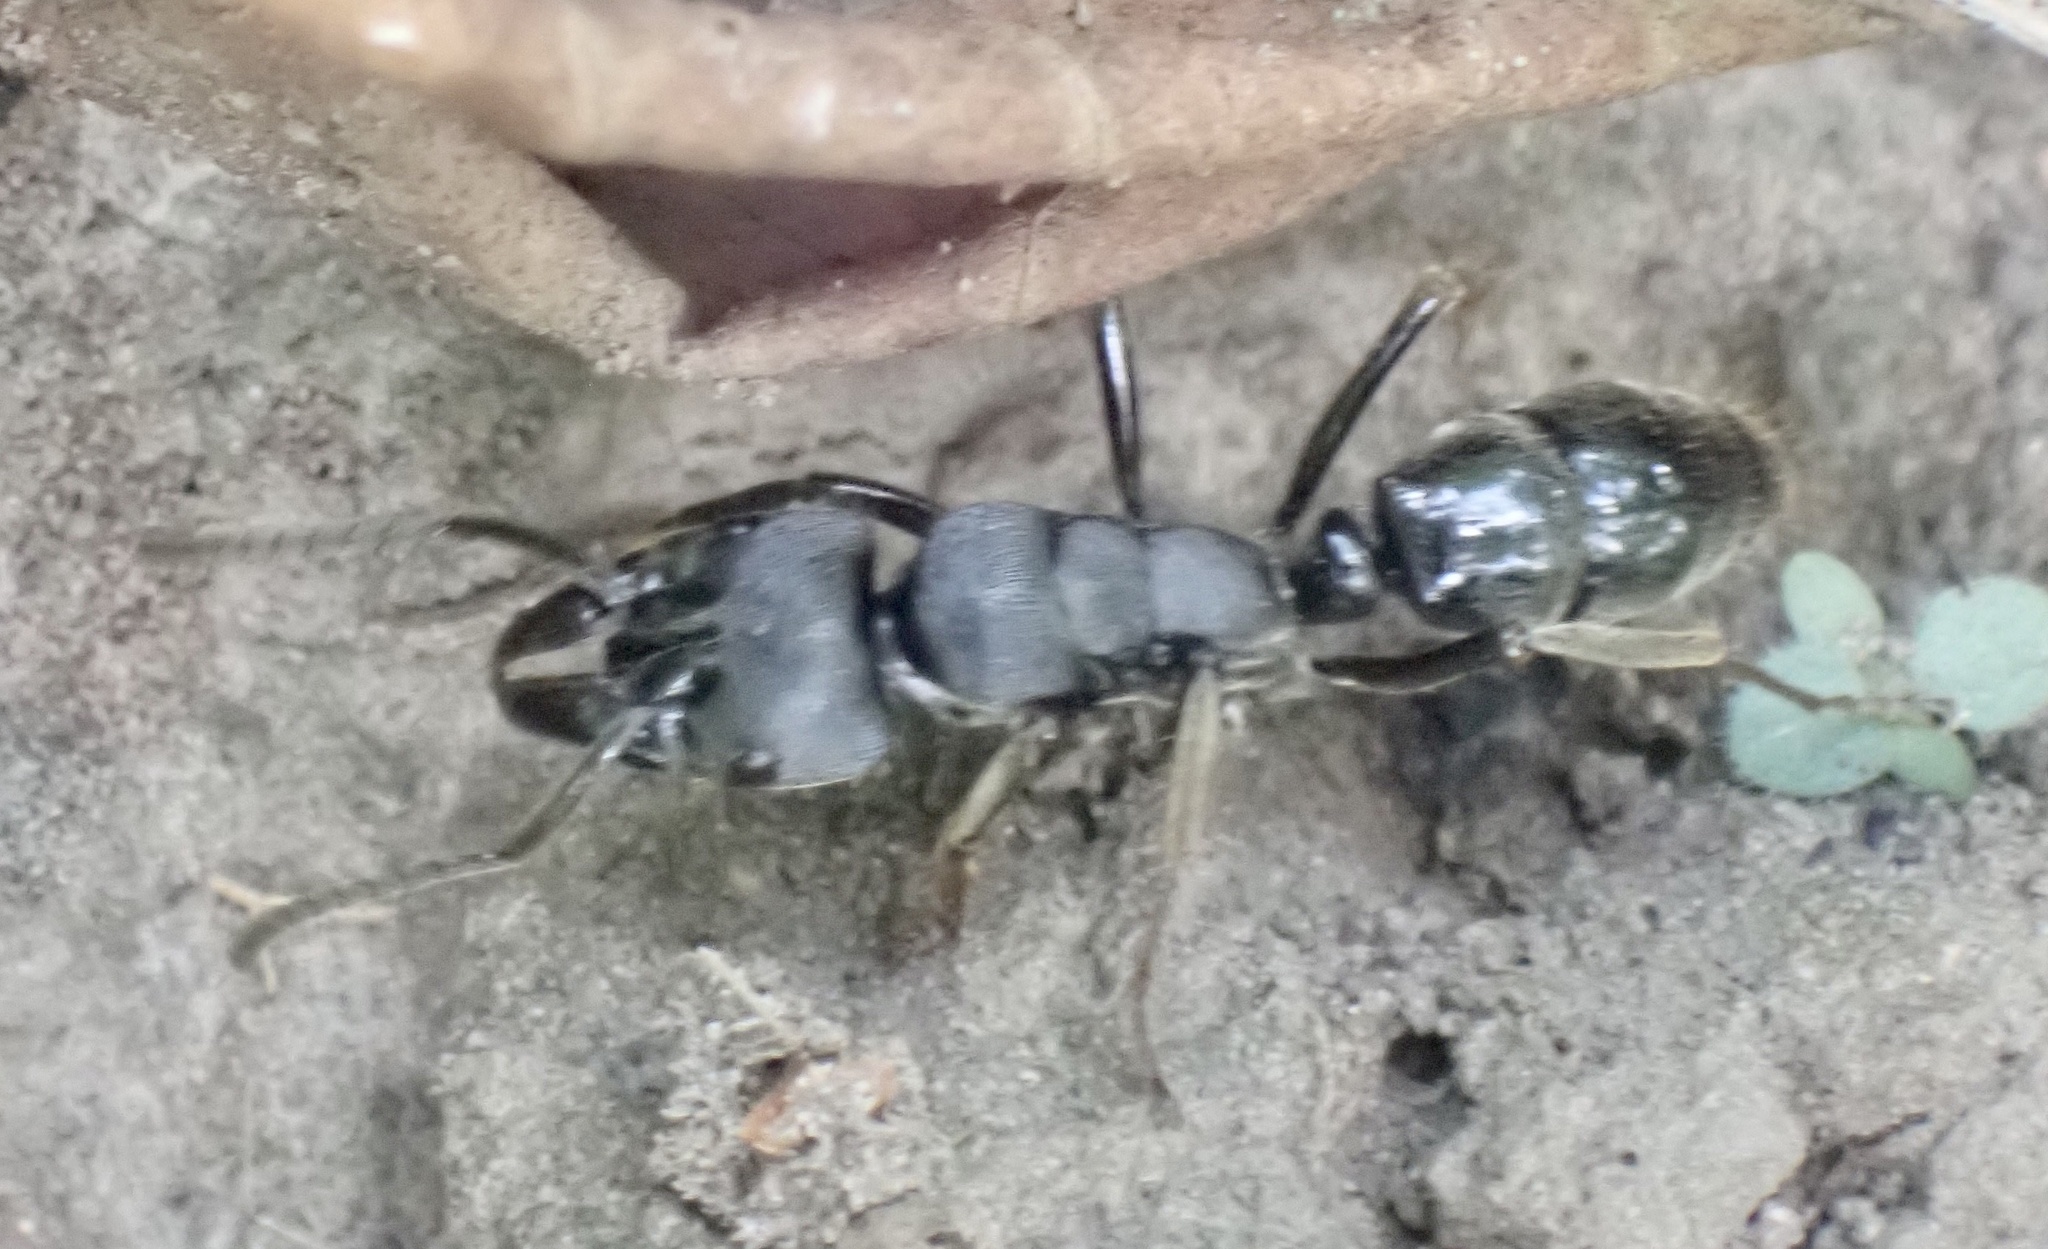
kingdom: Animalia
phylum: Arthropoda
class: Insecta
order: Hymenoptera
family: Formicidae
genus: Paltothyreus
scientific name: Paltothyreus tarsatus
